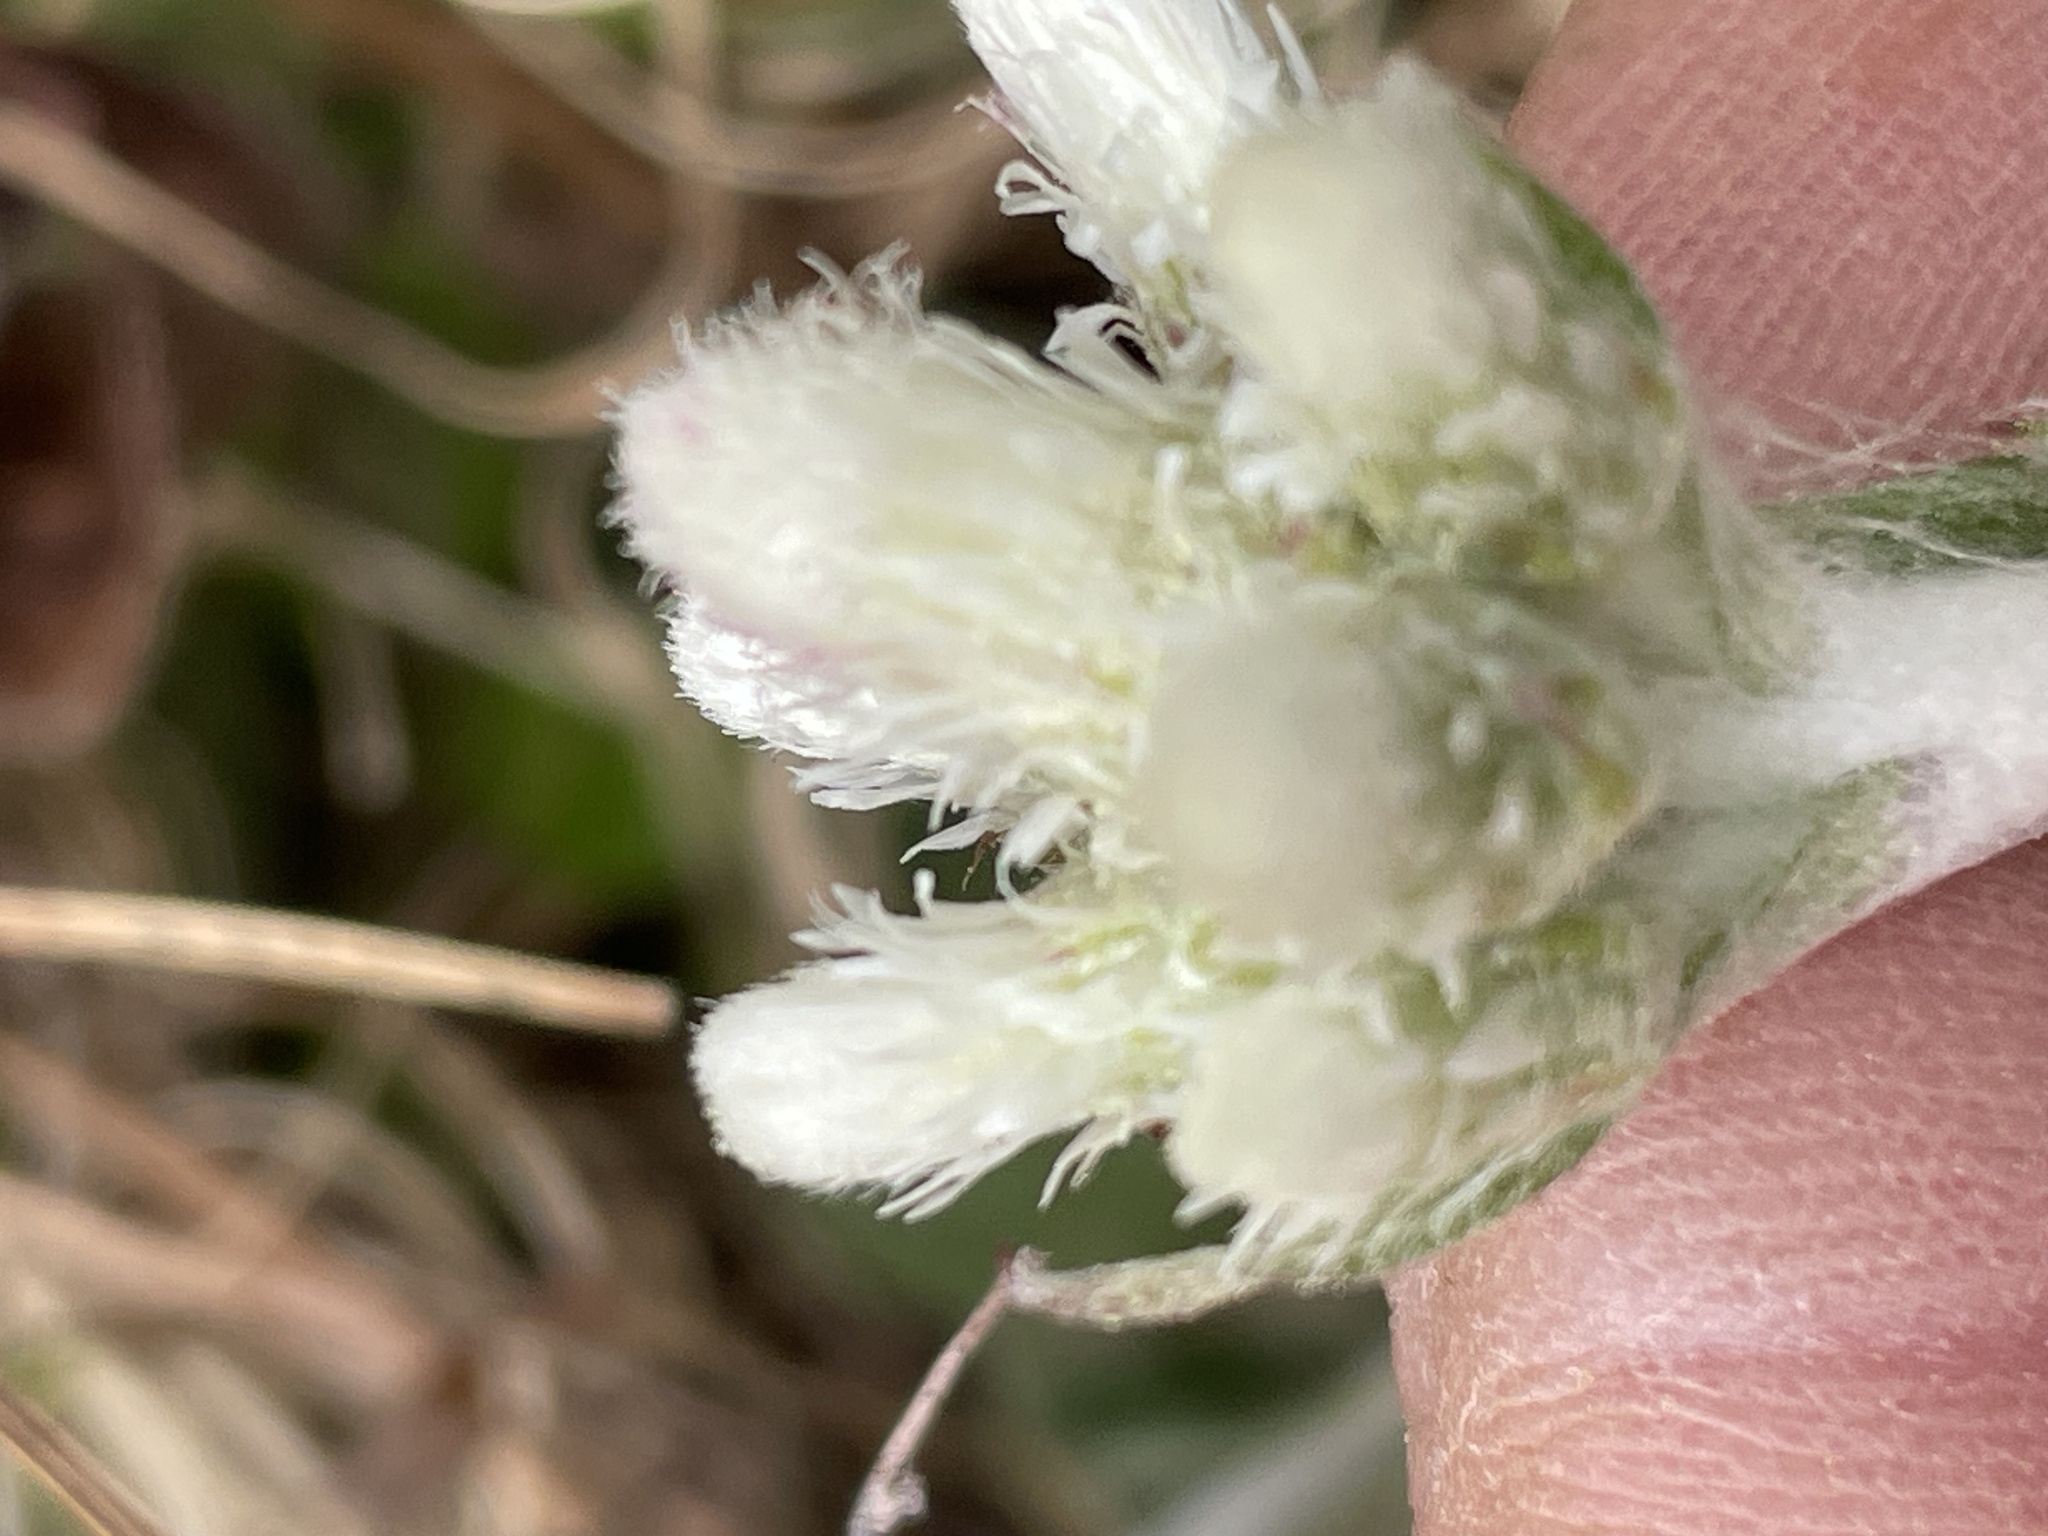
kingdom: Plantae
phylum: Tracheophyta
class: Magnoliopsida
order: Asterales
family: Asteraceae
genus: Antennaria
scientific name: Antennaria parlinii
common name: Parlin's pussytoes
